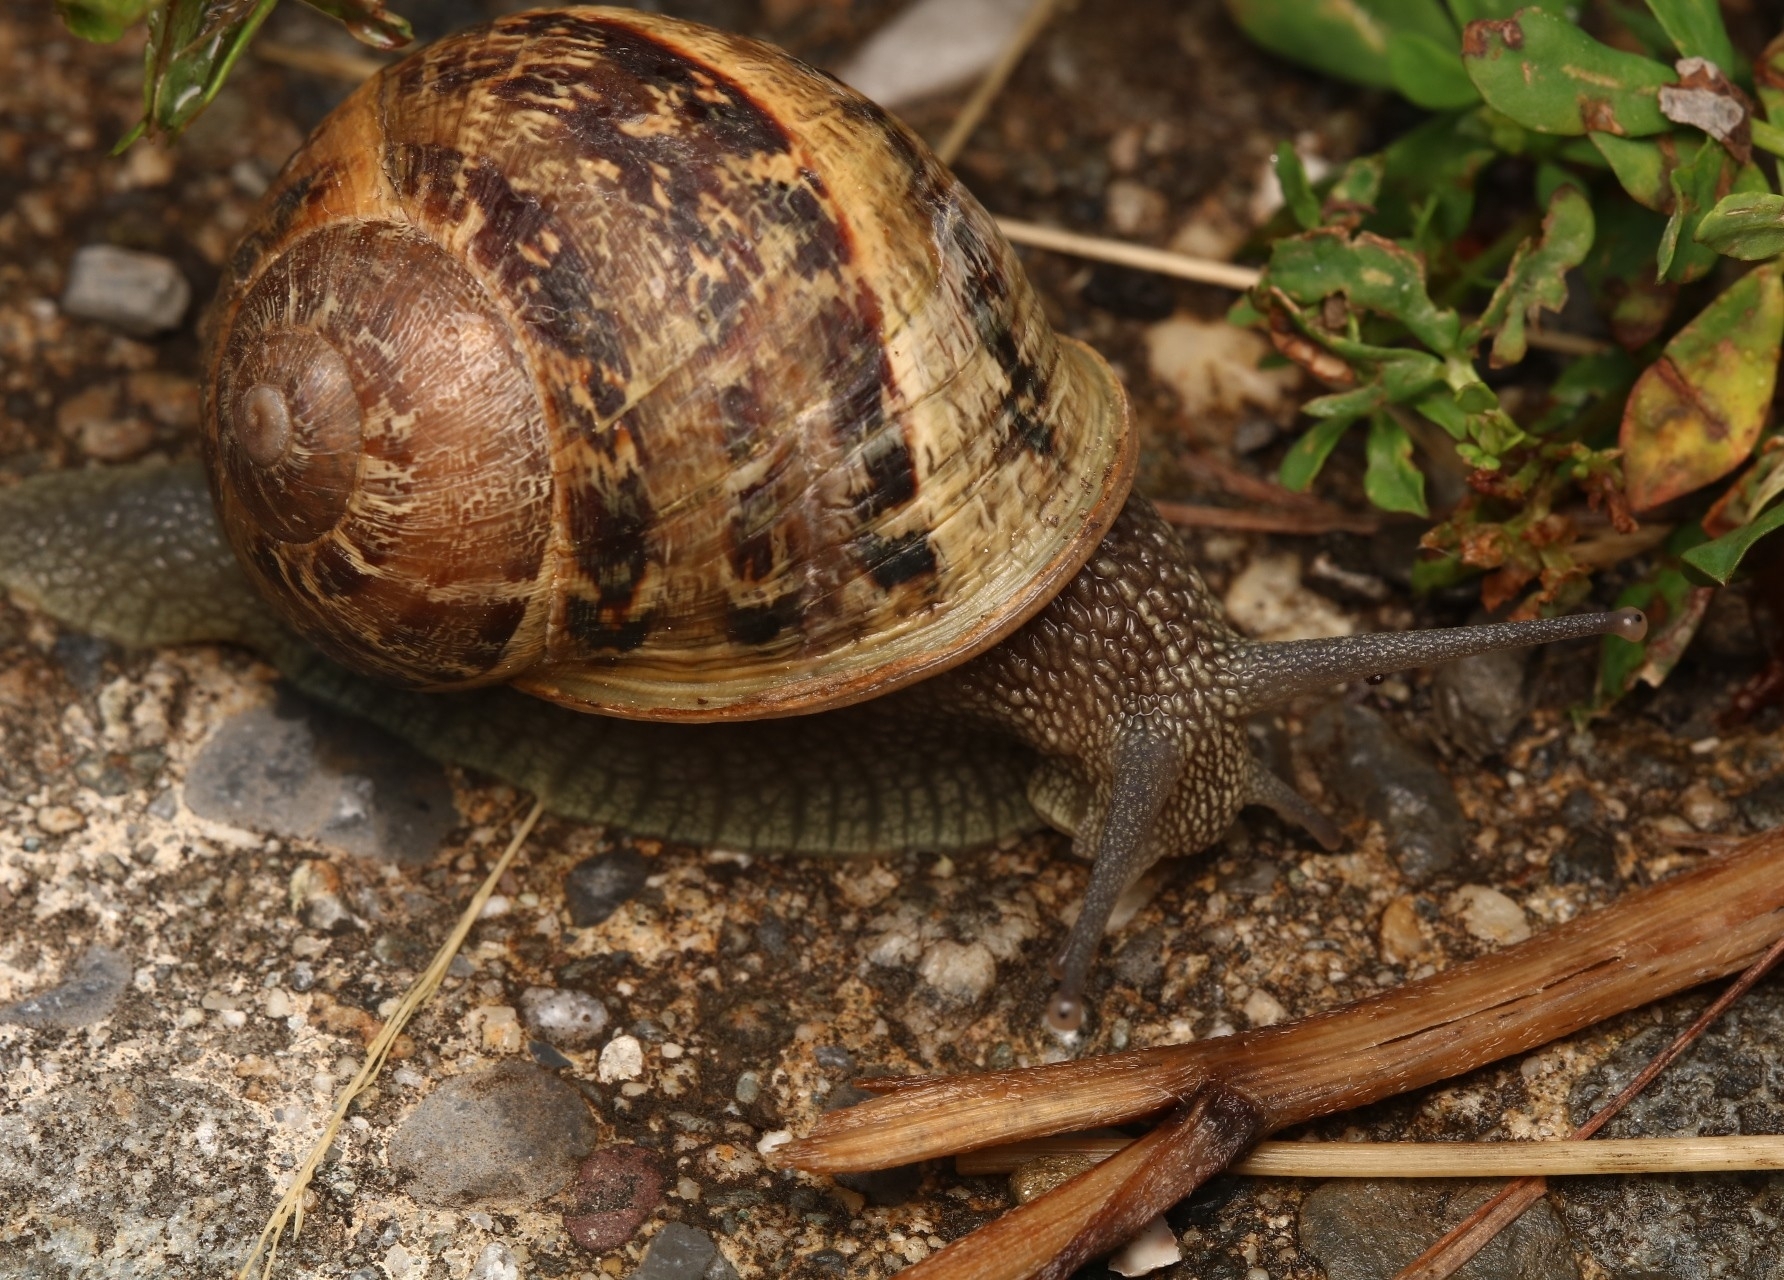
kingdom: Animalia
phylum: Mollusca
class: Gastropoda
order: Stylommatophora
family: Helicidae
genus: Cornu
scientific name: Cornu aspersum
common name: Brown garden snail
